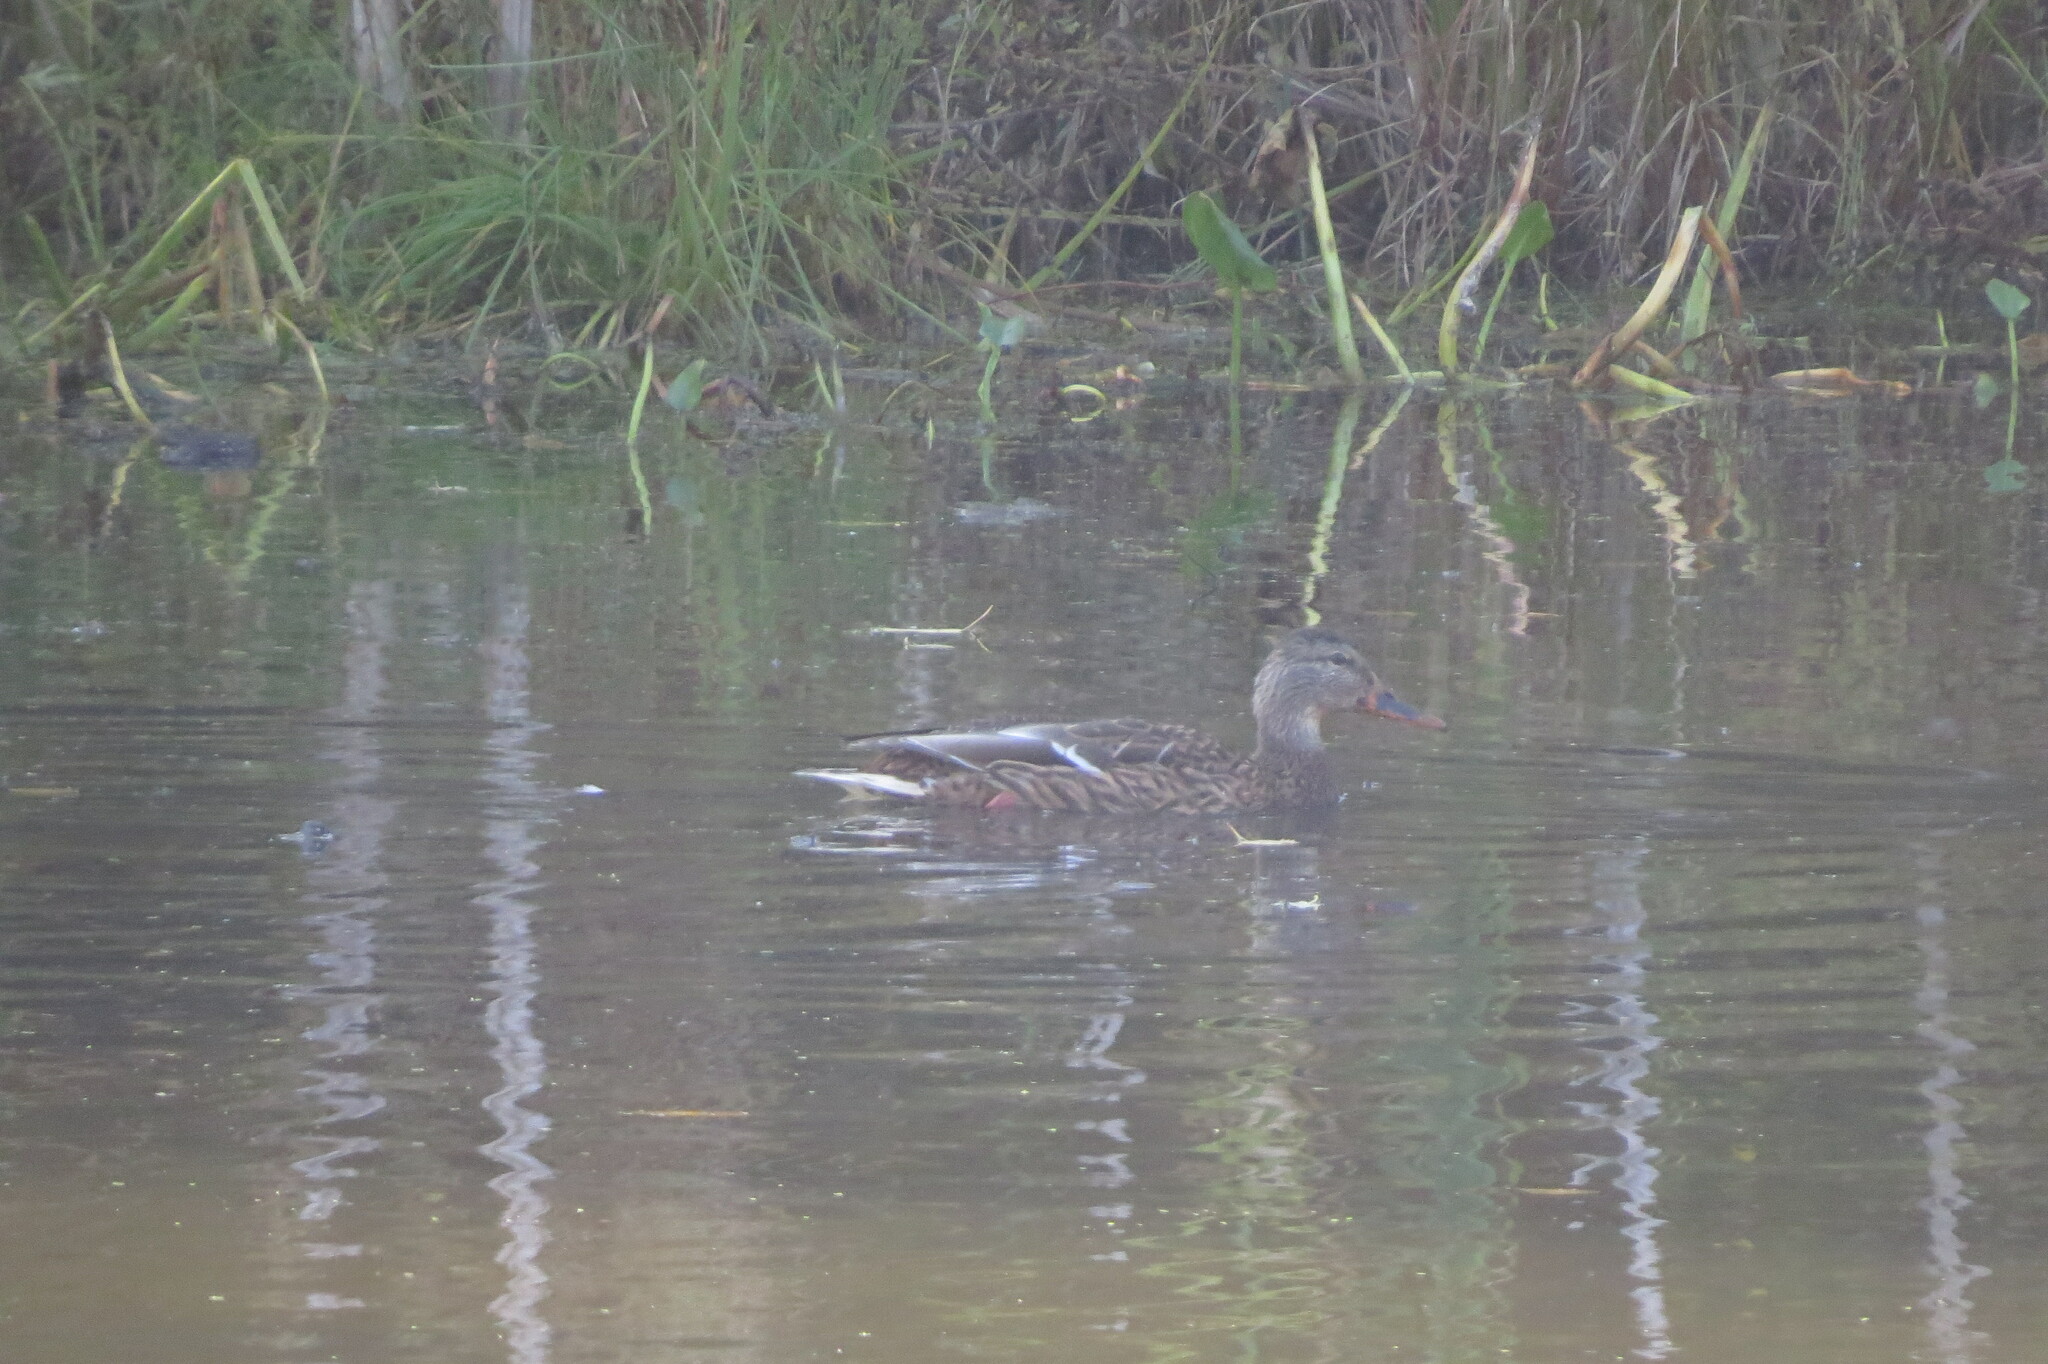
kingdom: Animalia
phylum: Chordata
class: Aves
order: Anseriformes
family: Anatidae
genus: Anas
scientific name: Anas platyrhynchos
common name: Mallard
